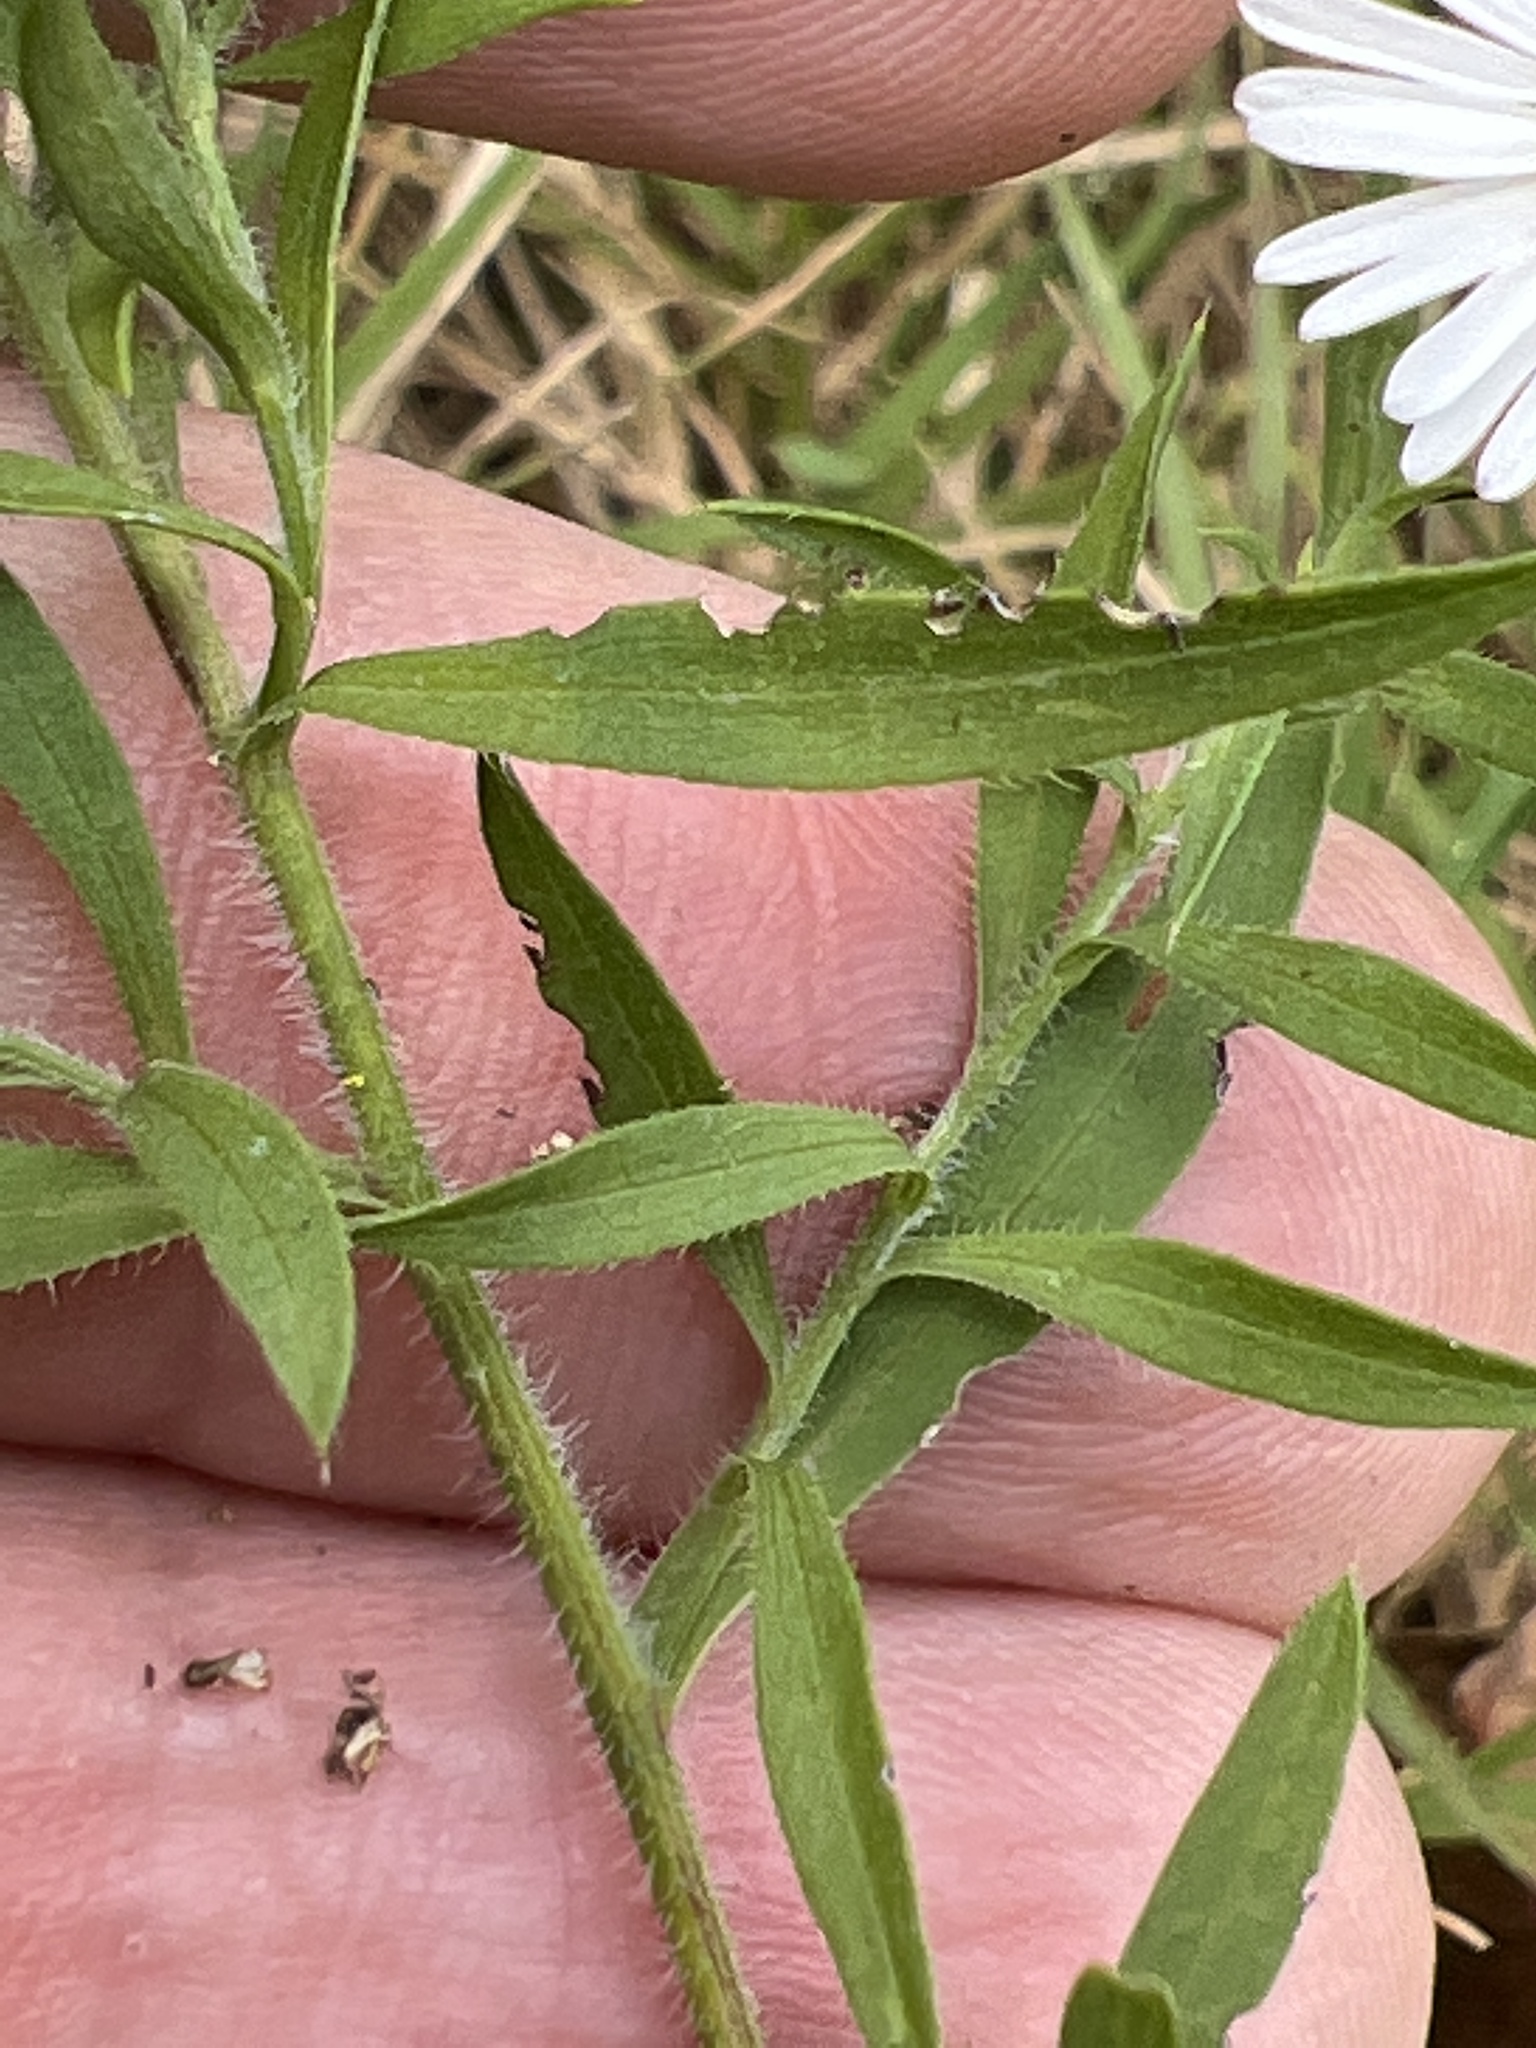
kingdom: Plantae
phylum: Tracheophyta
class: Magnoliopsida
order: Asterales
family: Asteraceae
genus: Symphyotrichum
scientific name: Symphyotrichum pilosum
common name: Awl aster
